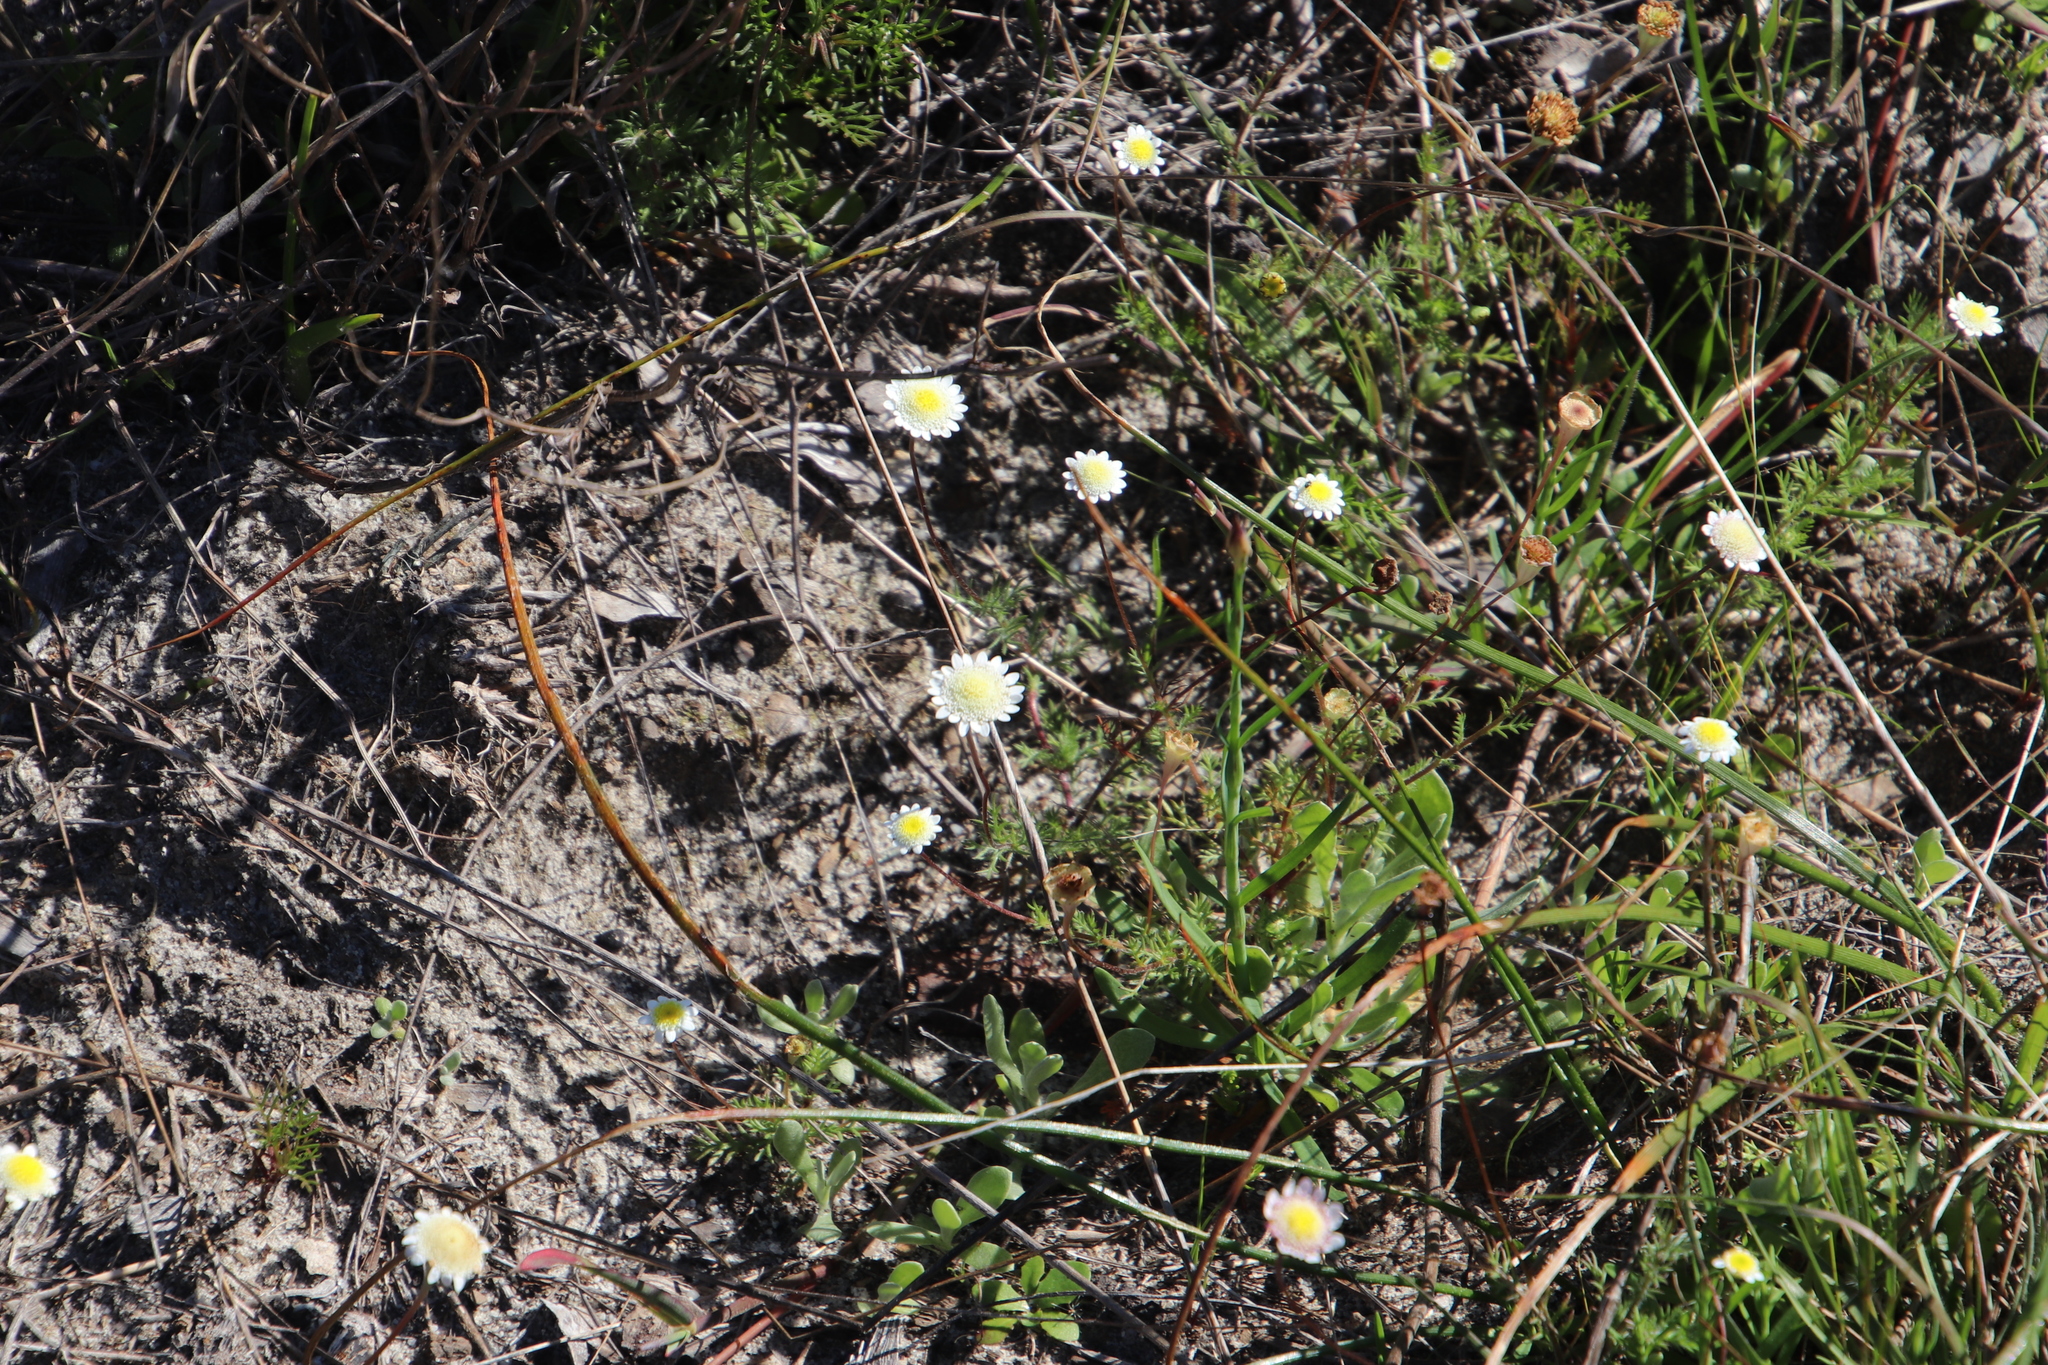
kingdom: Plantae
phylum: Tracheophyta
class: Magnoliopsida
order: Asterales
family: Asteraceae
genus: Cotula
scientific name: Cotula turbinata
